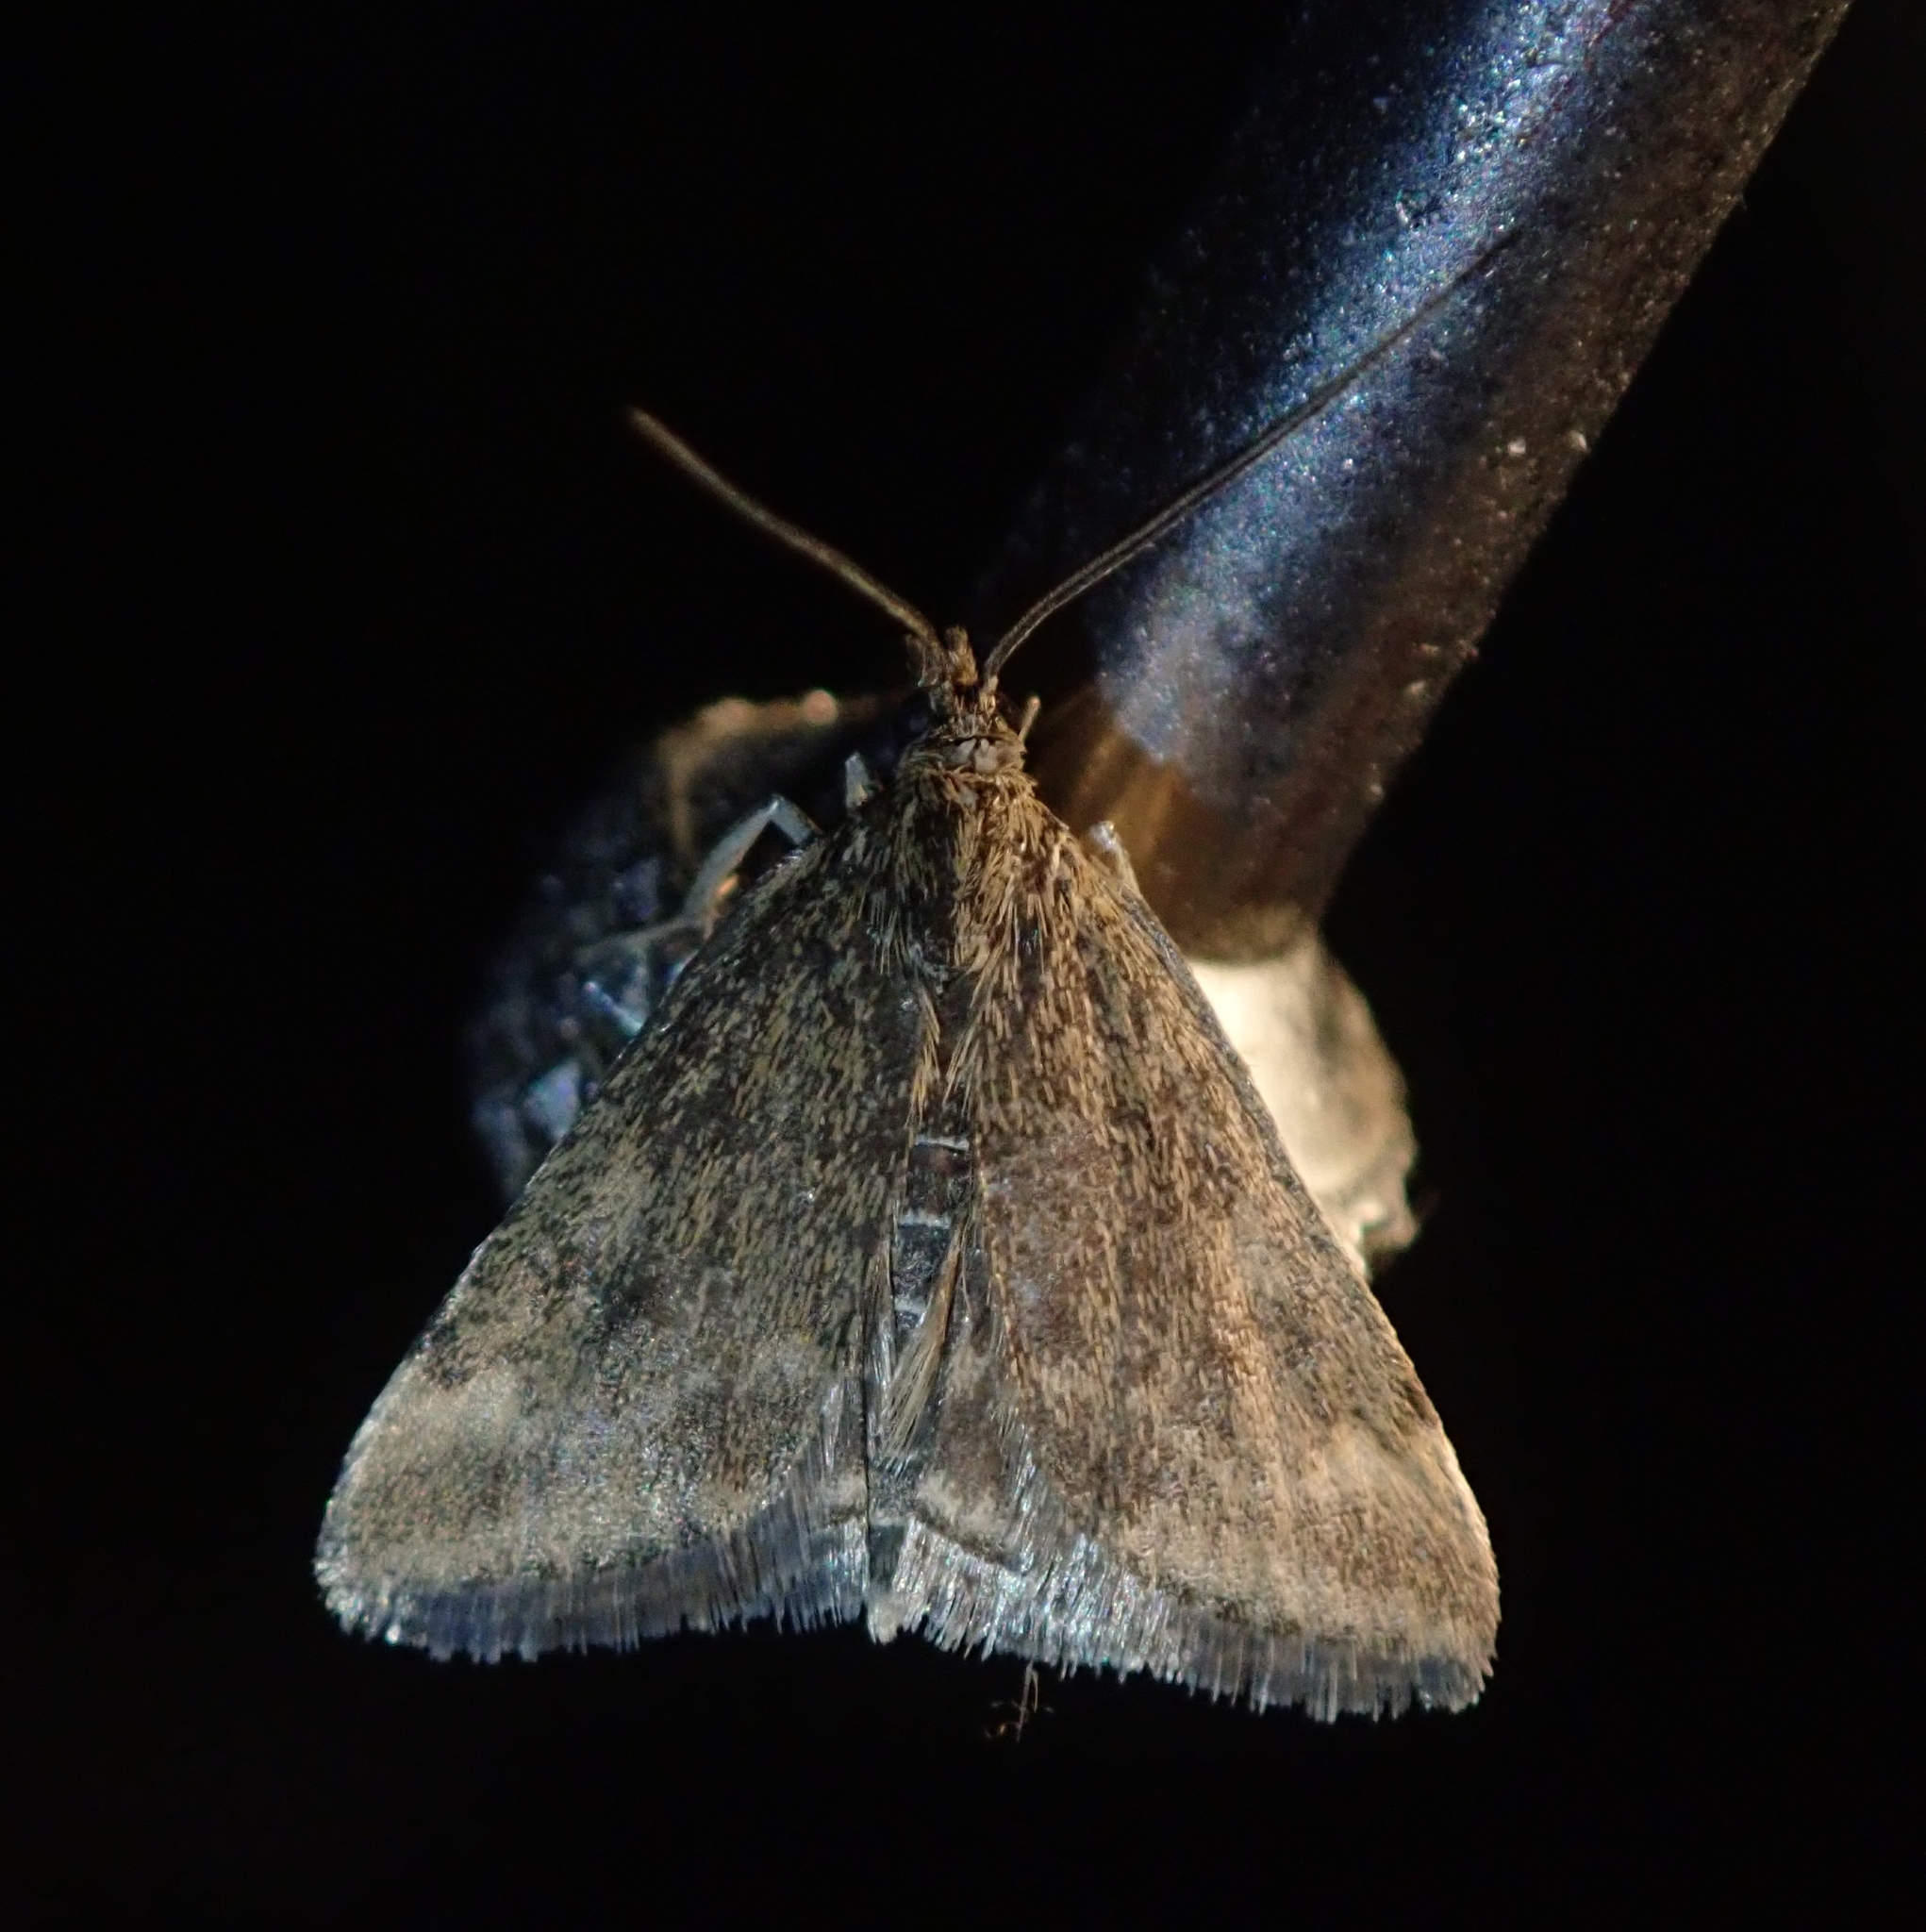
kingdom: Animalia
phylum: Arthropoda
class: Insecta
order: Lepidoptera
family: Crambidae
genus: Pyrausta
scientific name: Pyrausta despicata
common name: Straw-barred pearl
